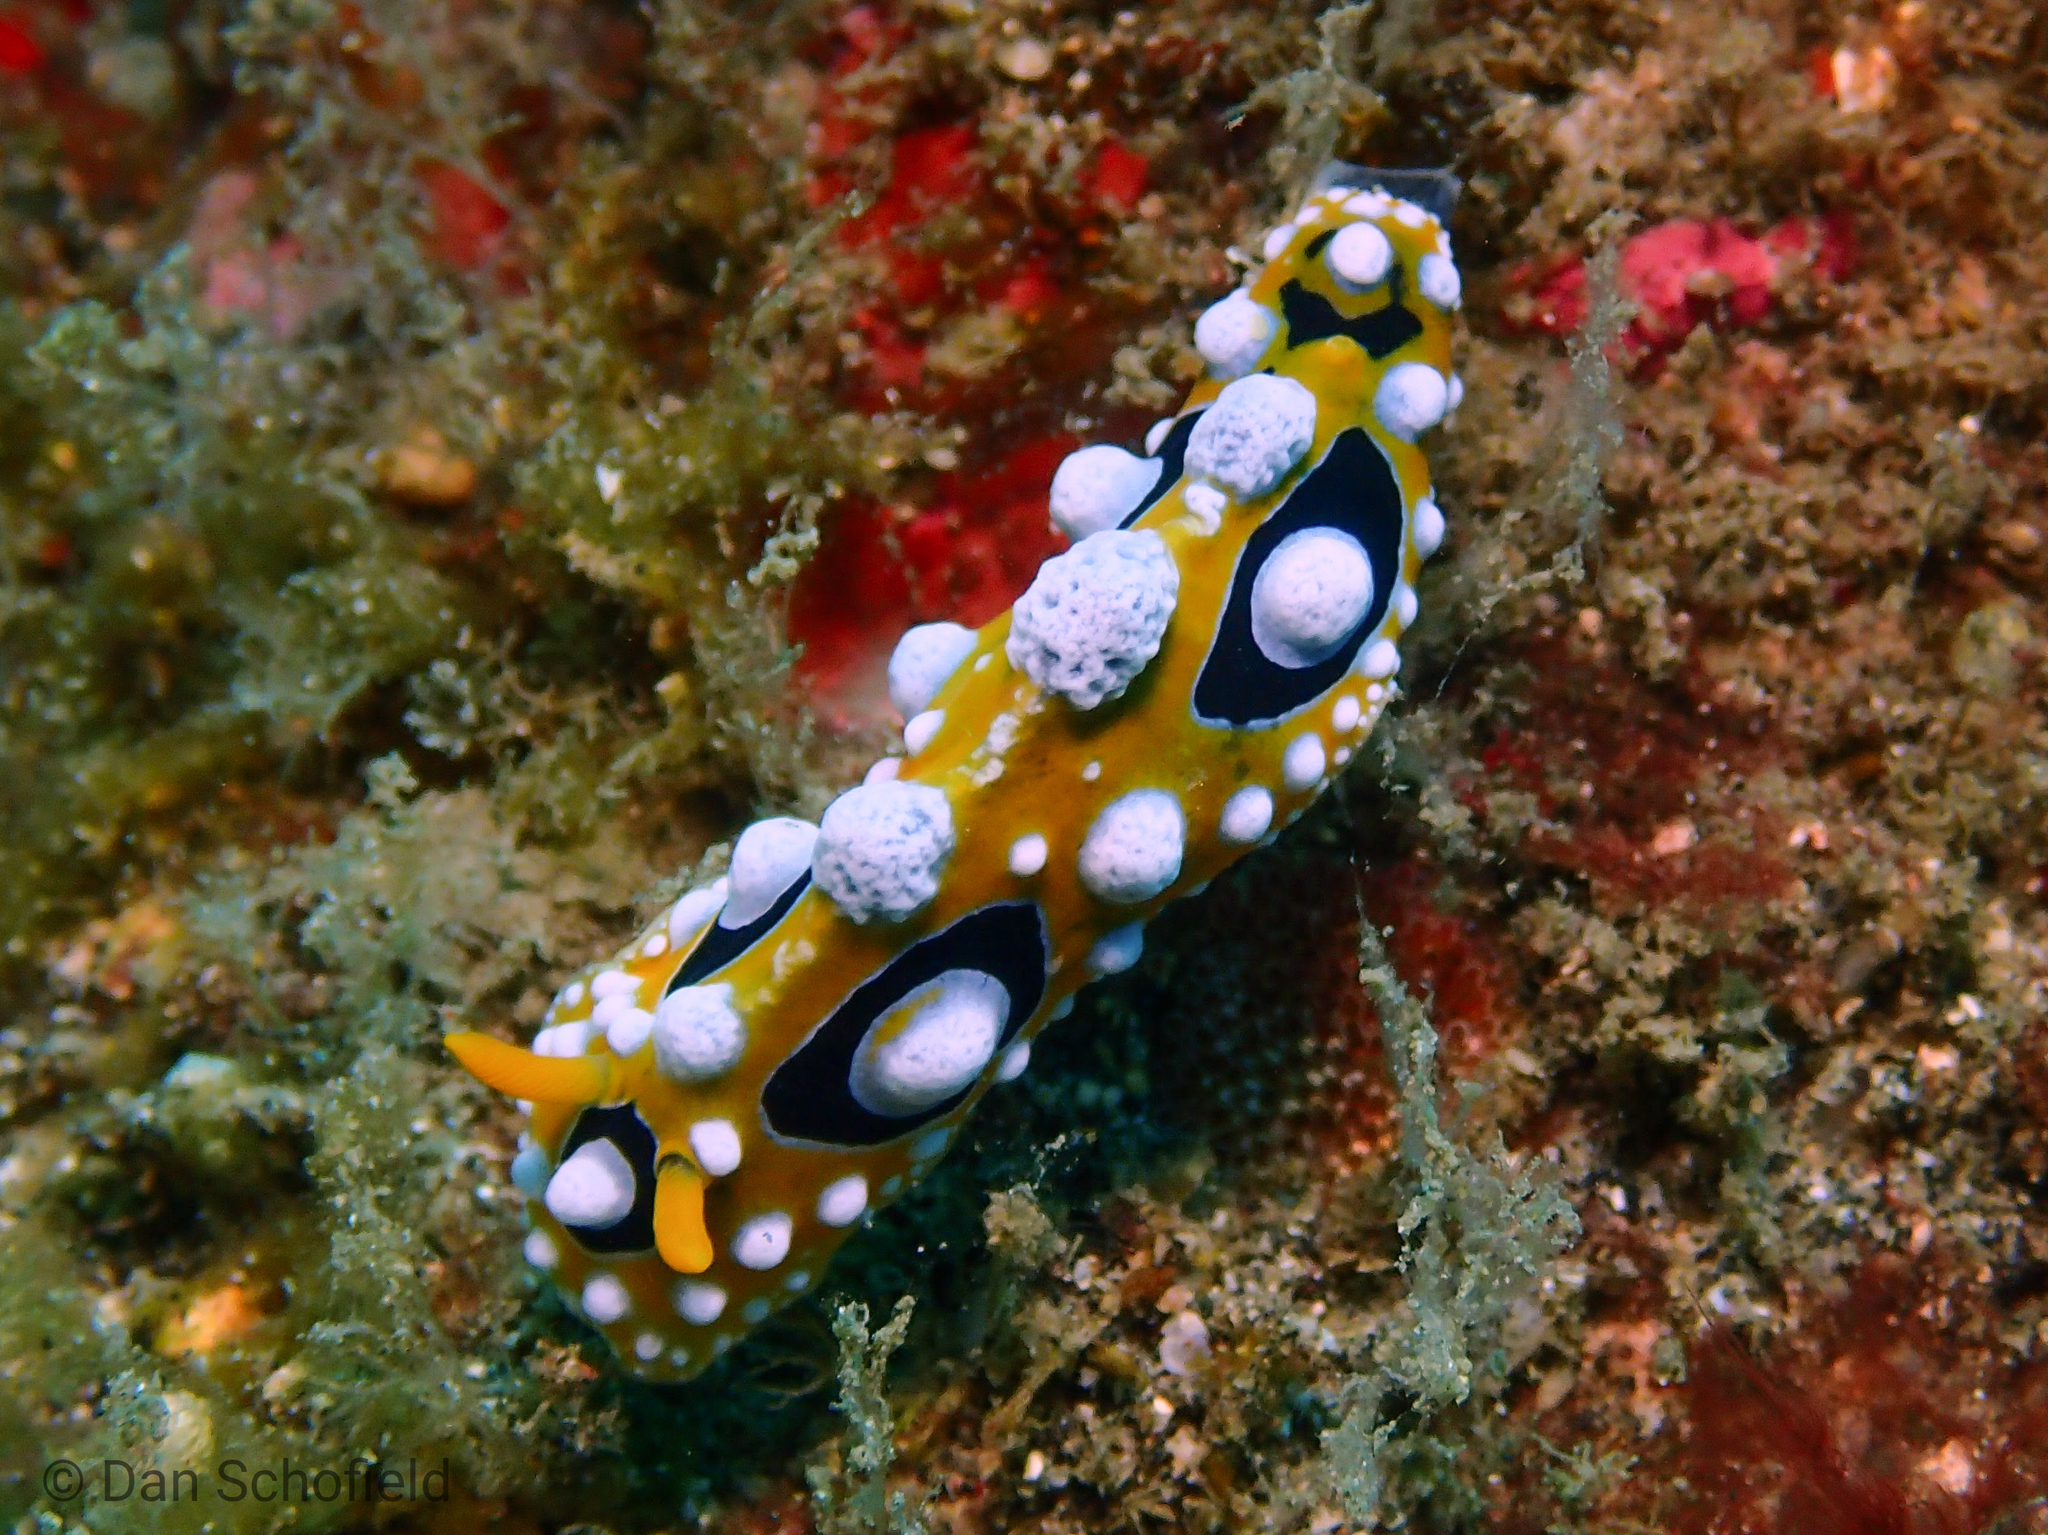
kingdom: Animalia
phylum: Mollusca
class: Gastropoda
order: Nudibranchia
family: Phyllidiidae
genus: Phyllidia
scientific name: Phyllidia ocellata
